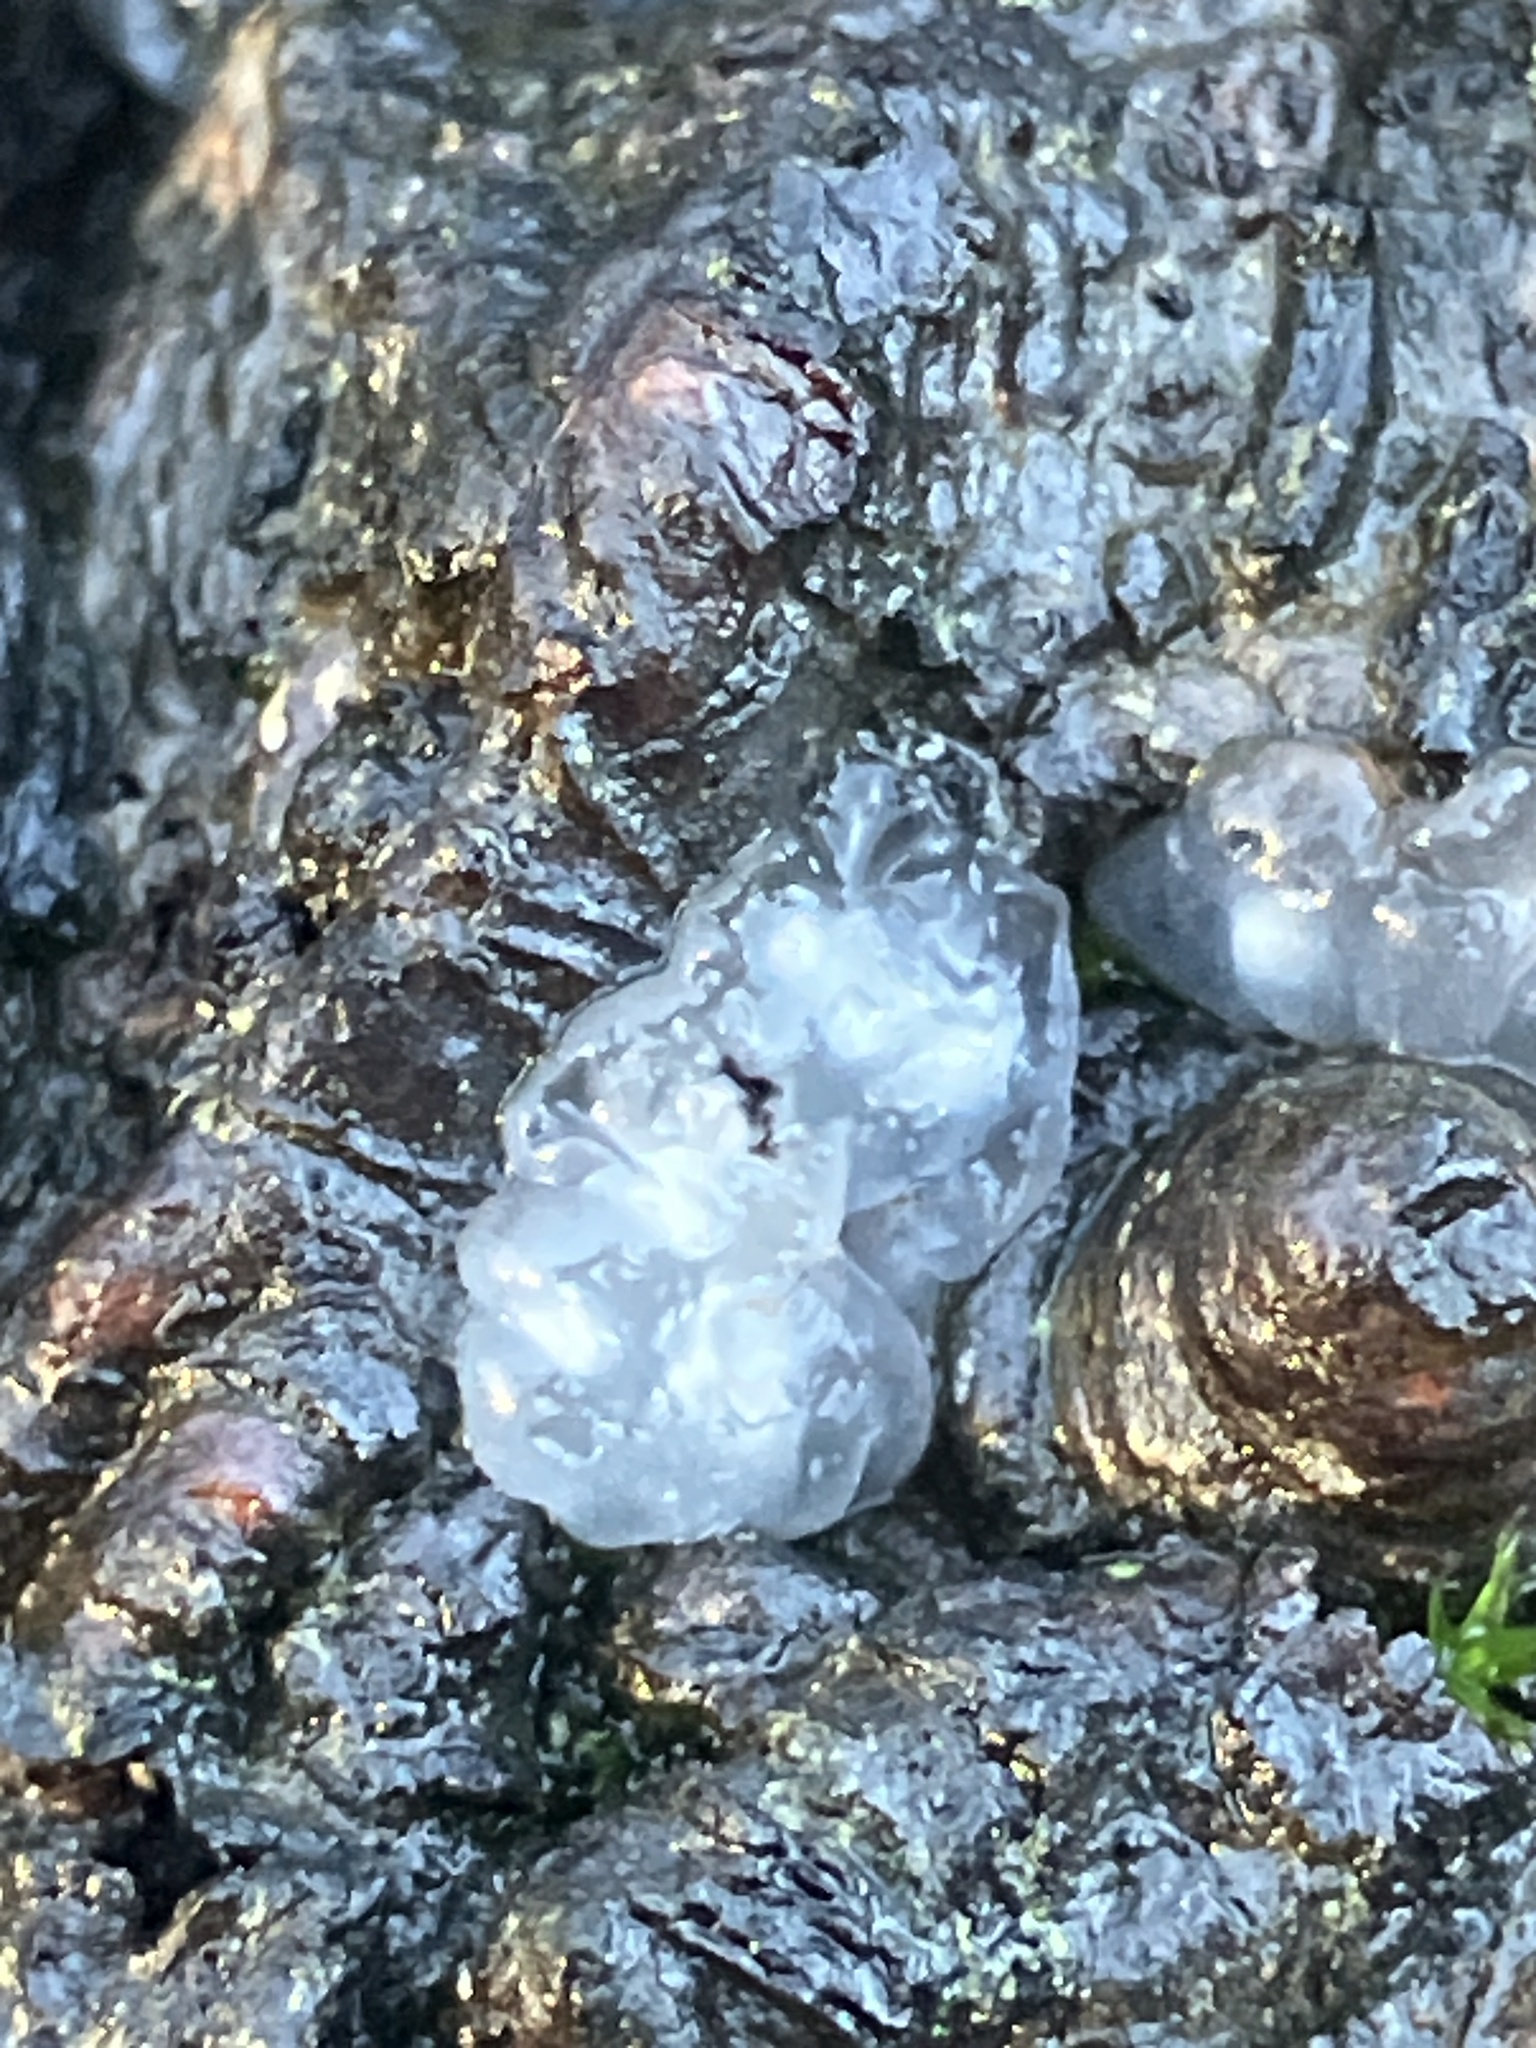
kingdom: Fungi
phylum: Basidiomycota
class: Agaricomycetes
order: Auriculariales
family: Hyaloriaceae
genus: Myxarium
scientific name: Myxarium nucleatum
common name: Crystal brain fungus
